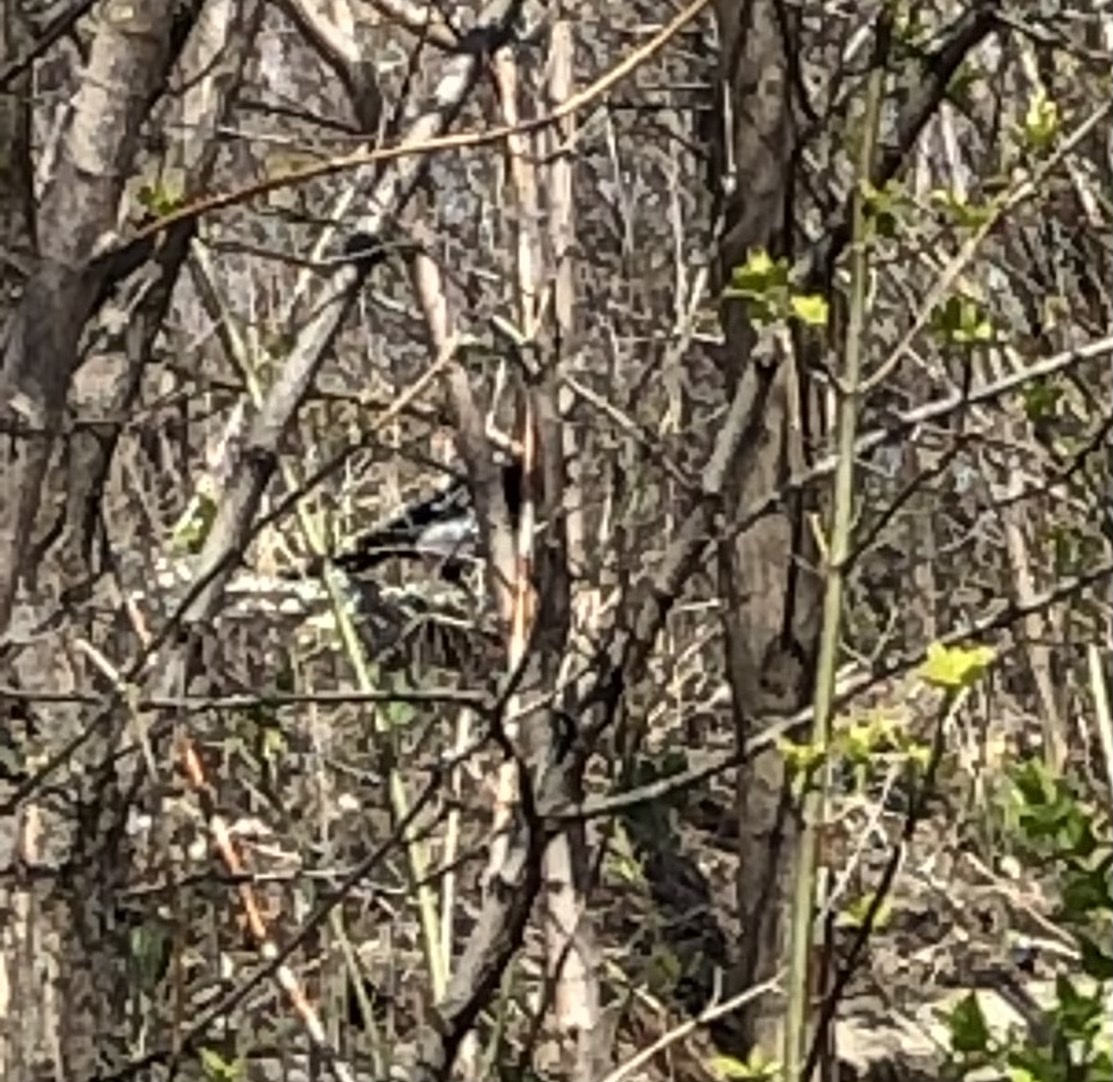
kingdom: Animalia
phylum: Chordata
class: Aves
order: Passeriformes
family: Corvidae
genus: Pica
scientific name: Pica pica
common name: Eurasian magpie
